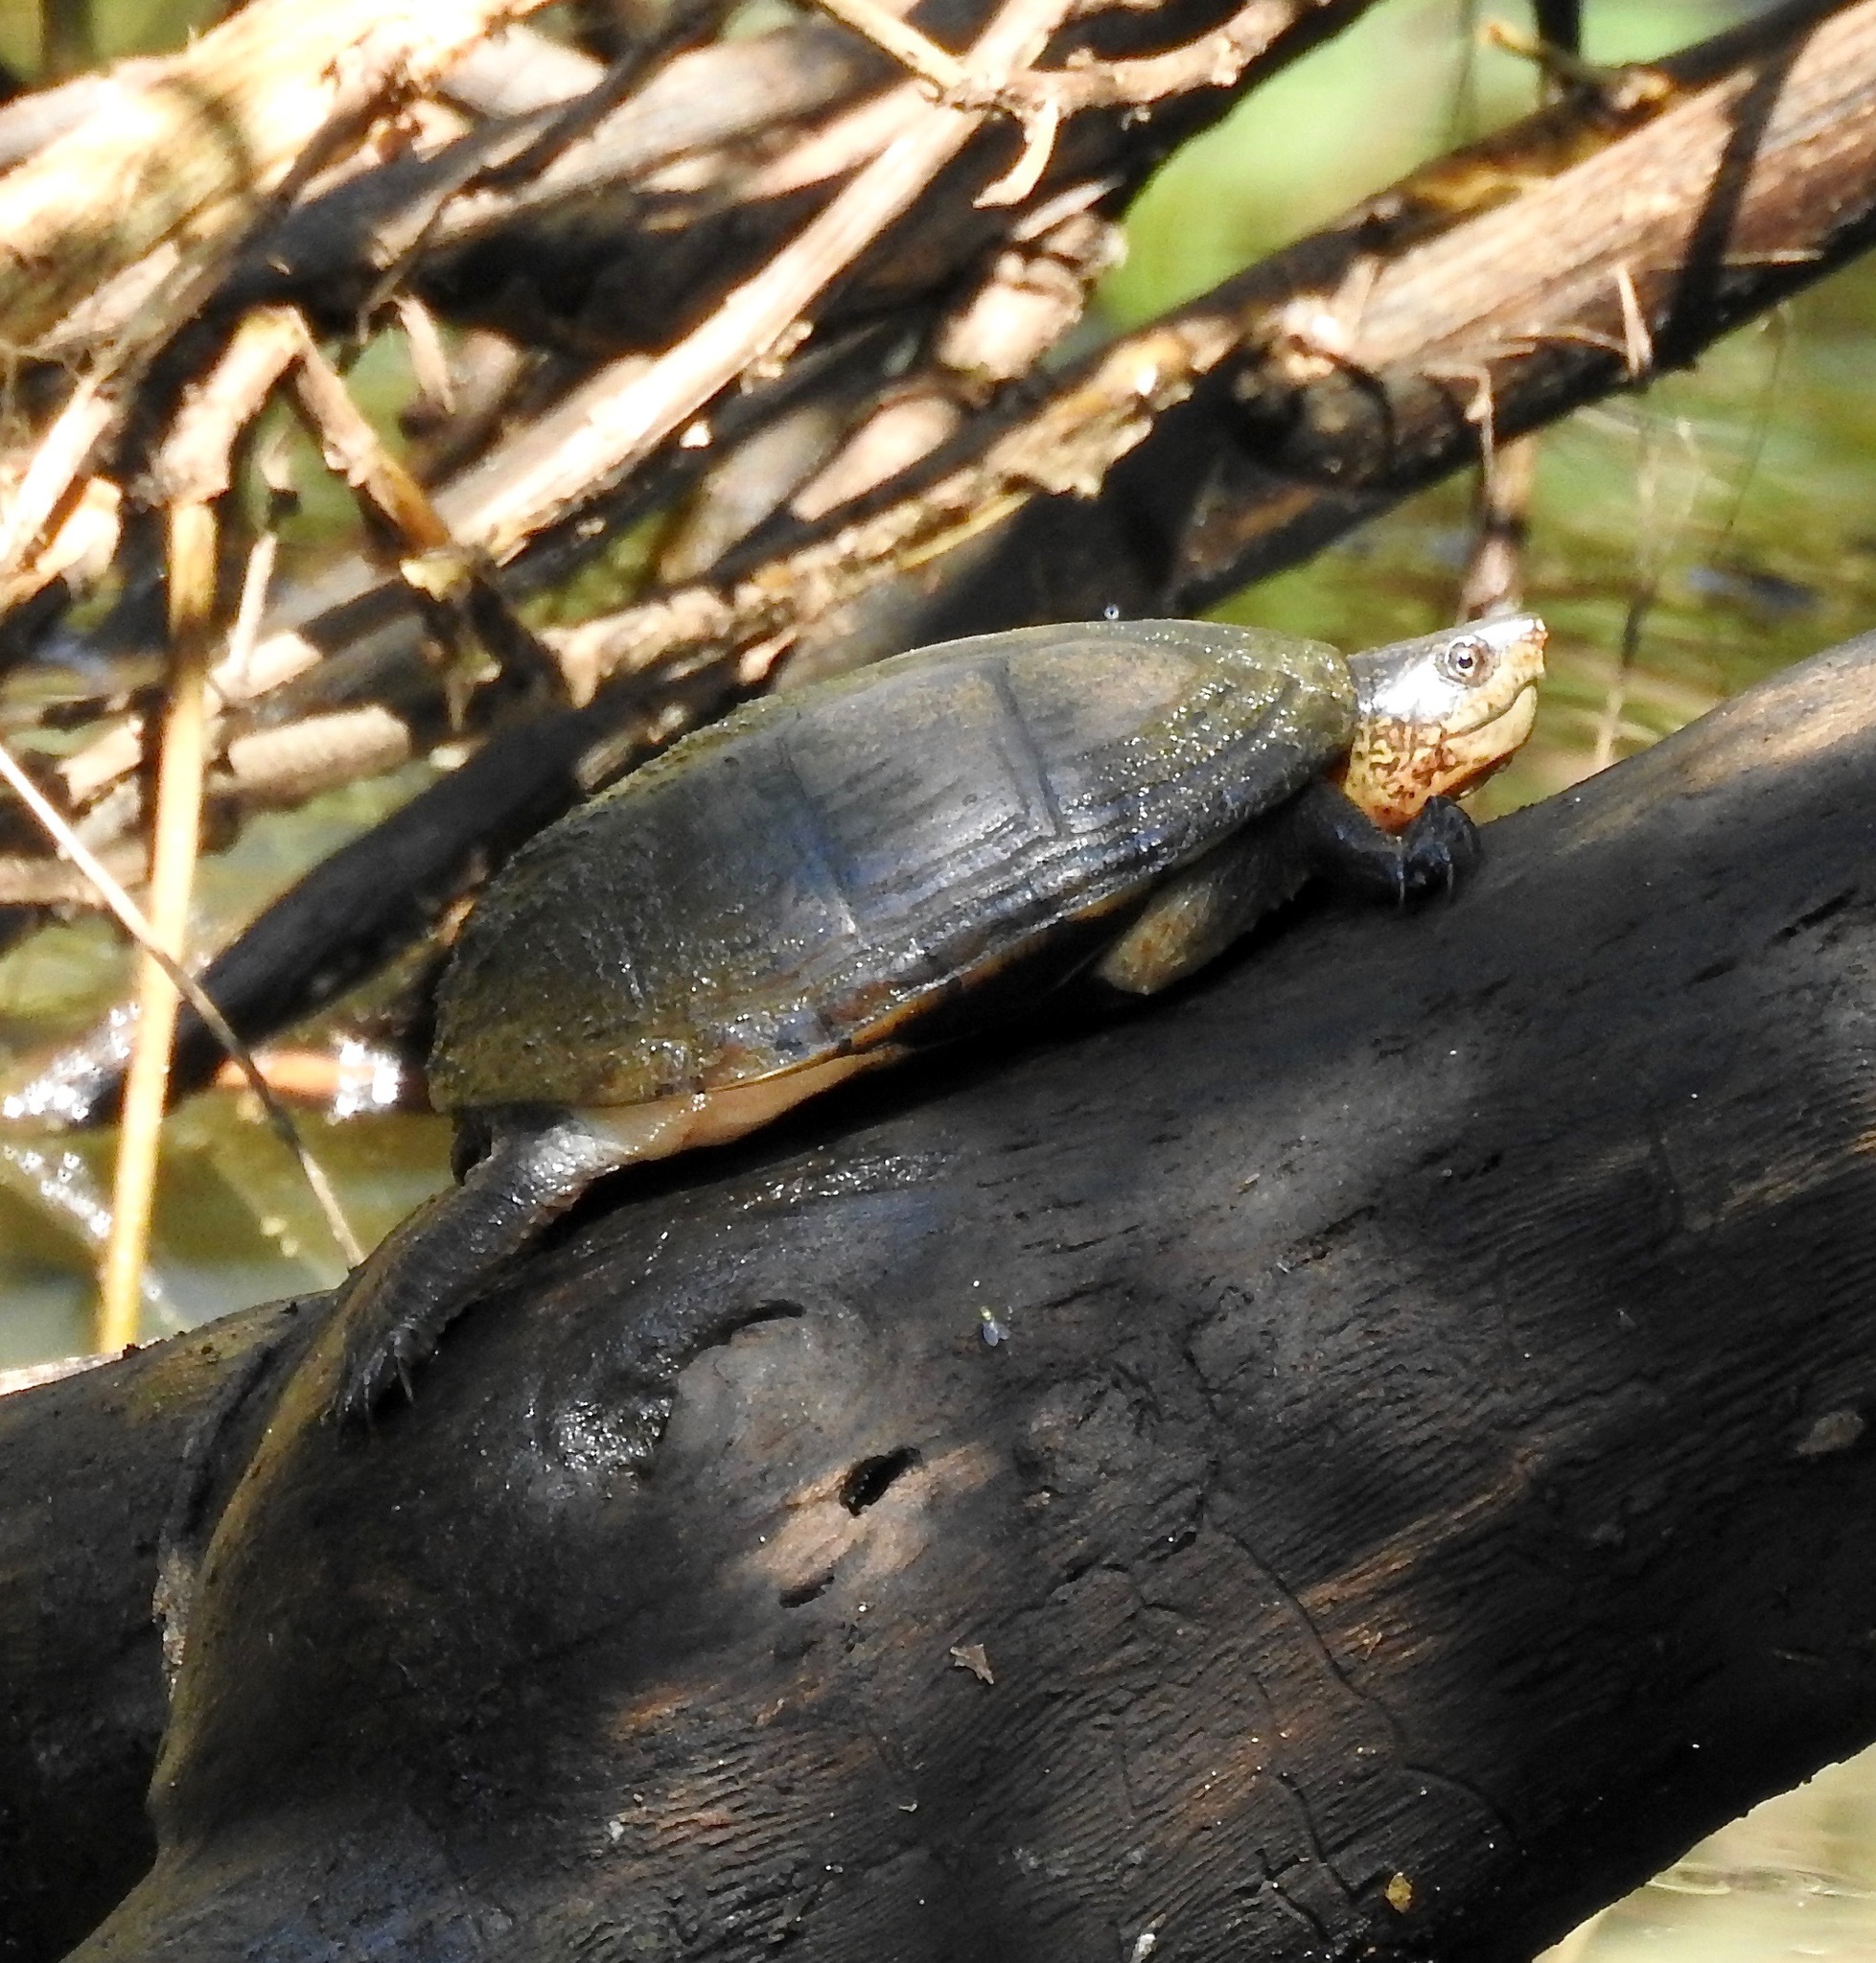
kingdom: Animalia
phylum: Chordata
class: Testudines
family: Kinosternidae
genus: Kinosternon
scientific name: Kinosternon chimalhuaca
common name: Jalisco mud turtle
